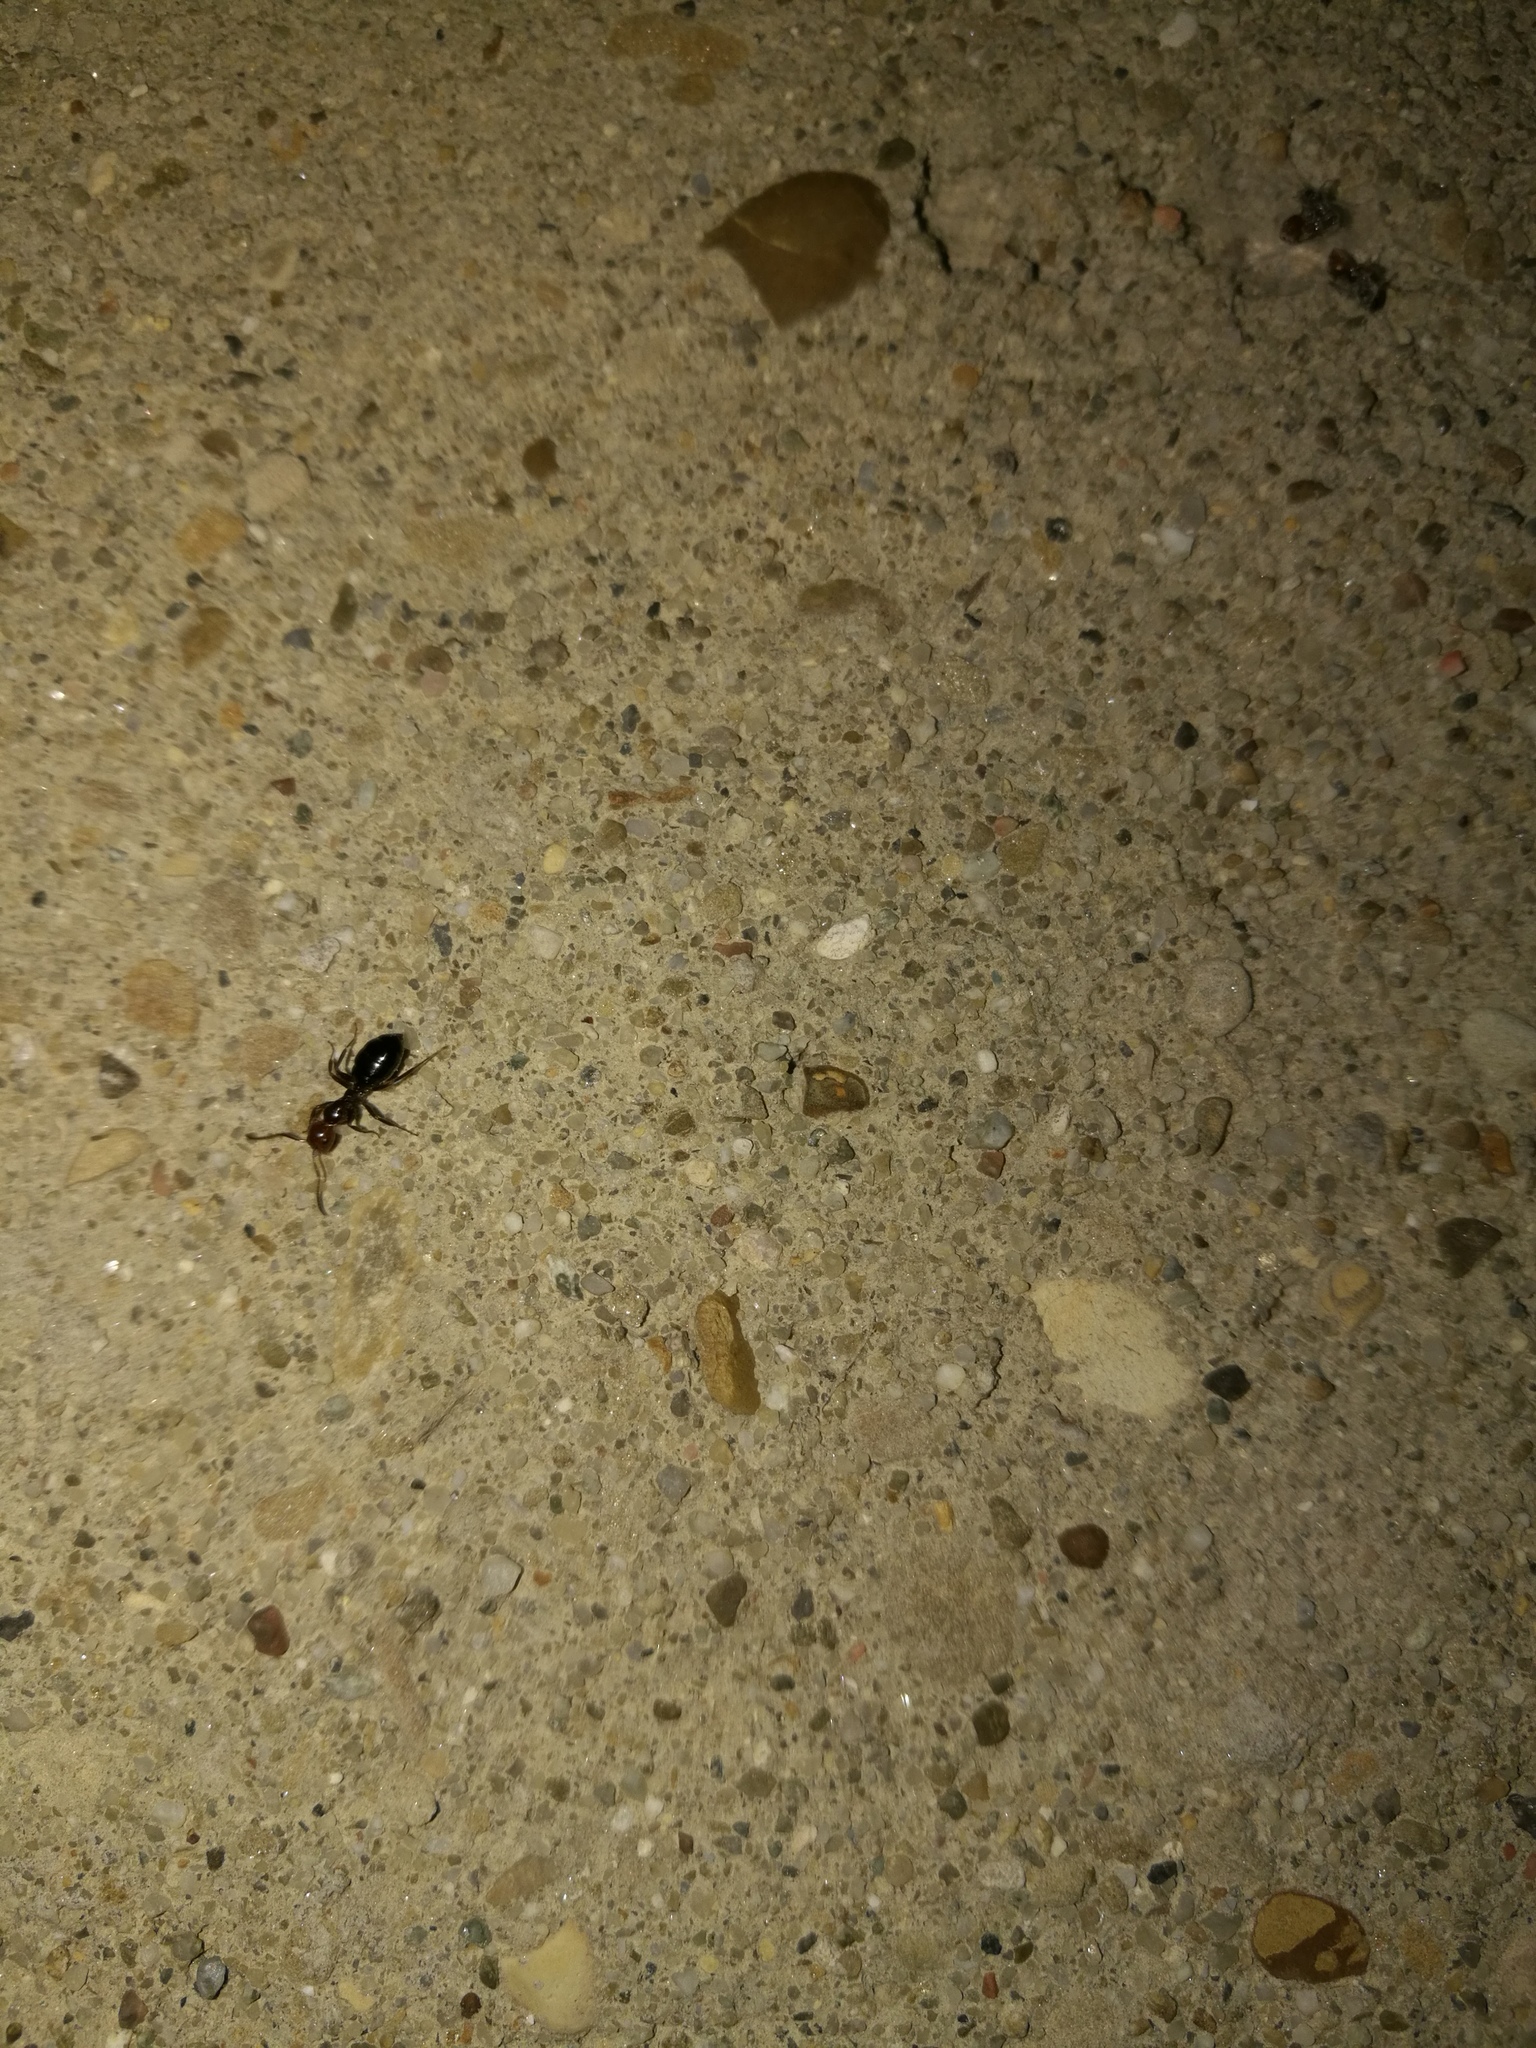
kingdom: Animalia
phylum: Arthropoda
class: Insecta
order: Hymenoptera
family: Formicidae
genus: Camponotus
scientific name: Camponotus lateralis
